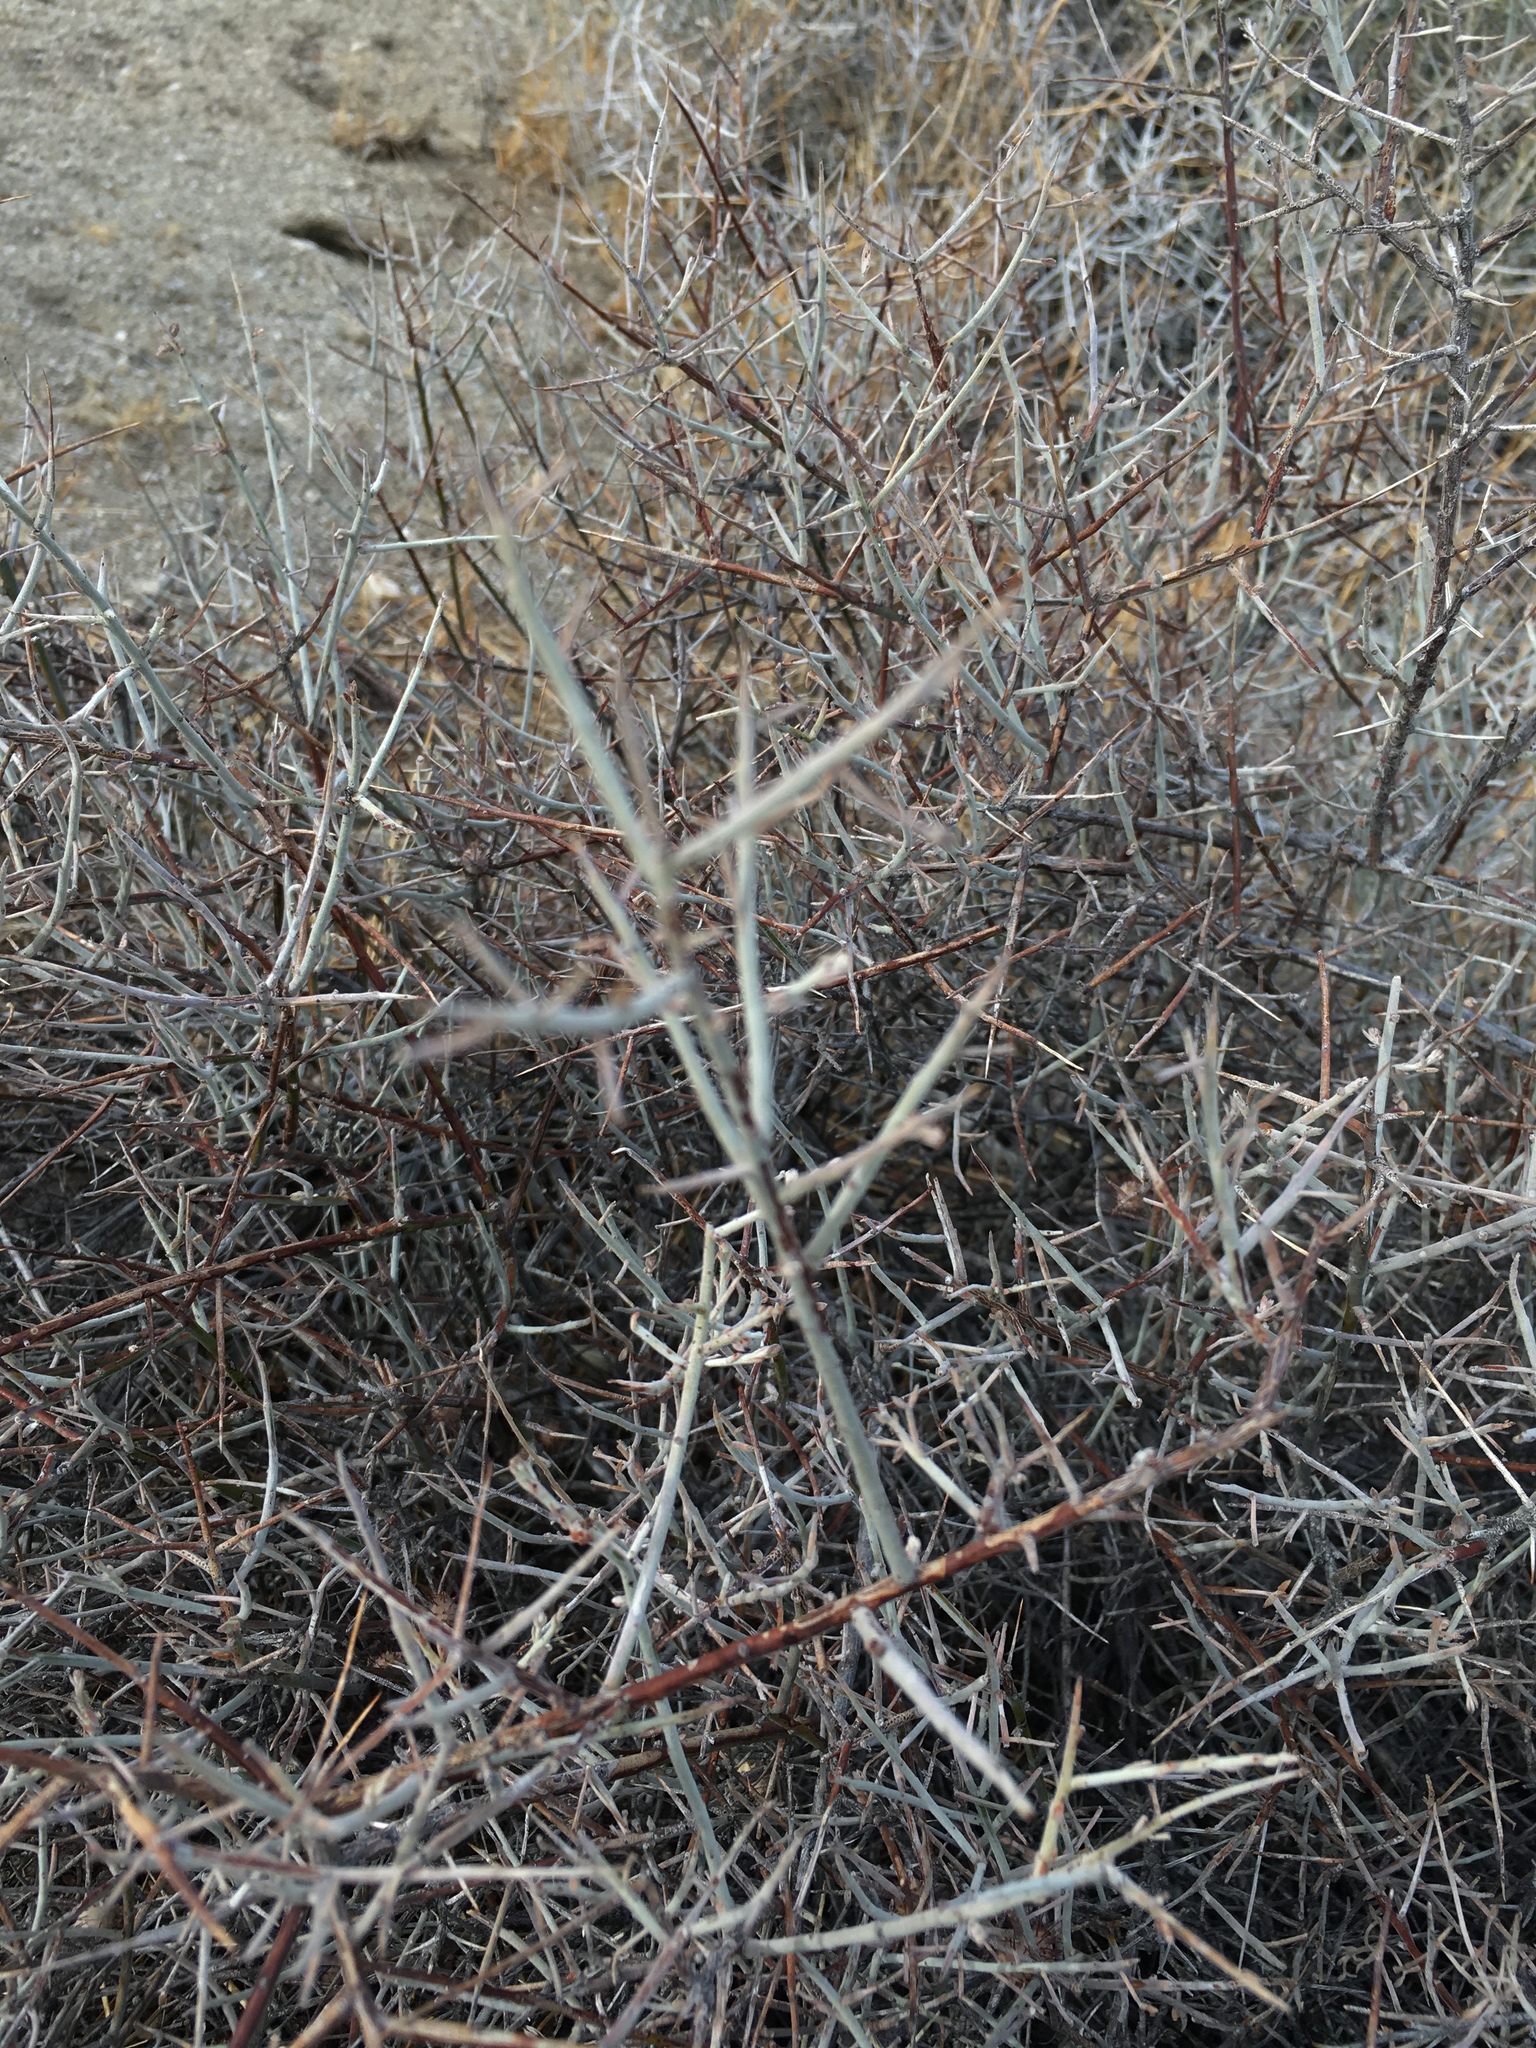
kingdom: Plantae
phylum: Tracheophyta
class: Magnoliopsida
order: Zygophyllales
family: Krameriaceae
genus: Krameria
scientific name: Krameria bicolor
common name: White ratany
